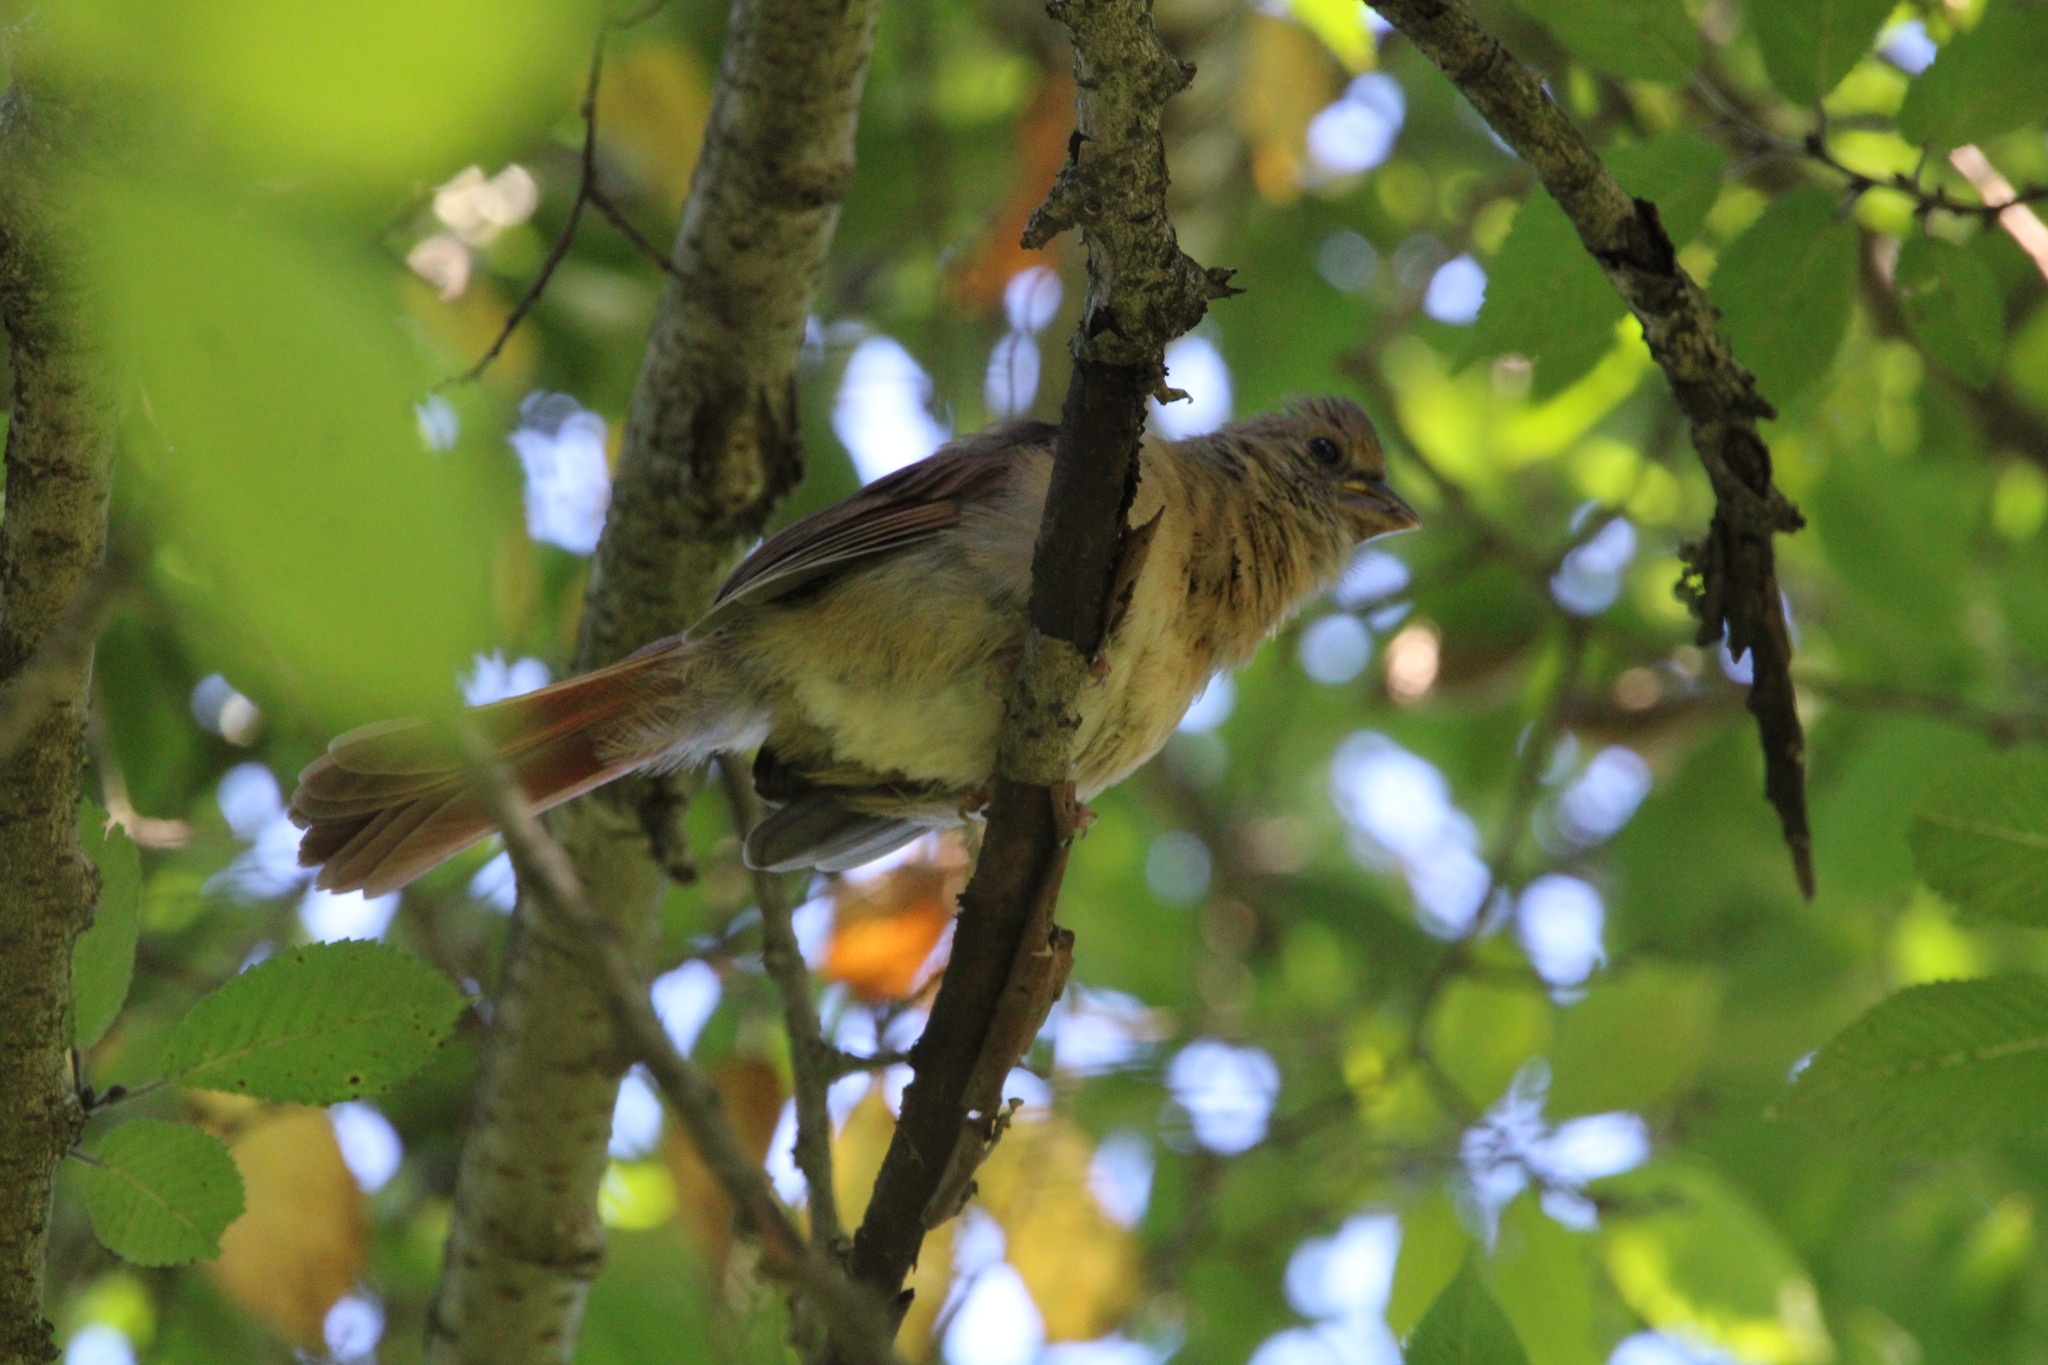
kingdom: Animalia
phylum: Chordata
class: Aves
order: Passeriformes
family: Cardinalidae
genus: Cardinalis
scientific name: Cardinalis cardinalis
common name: Northern cardinal
